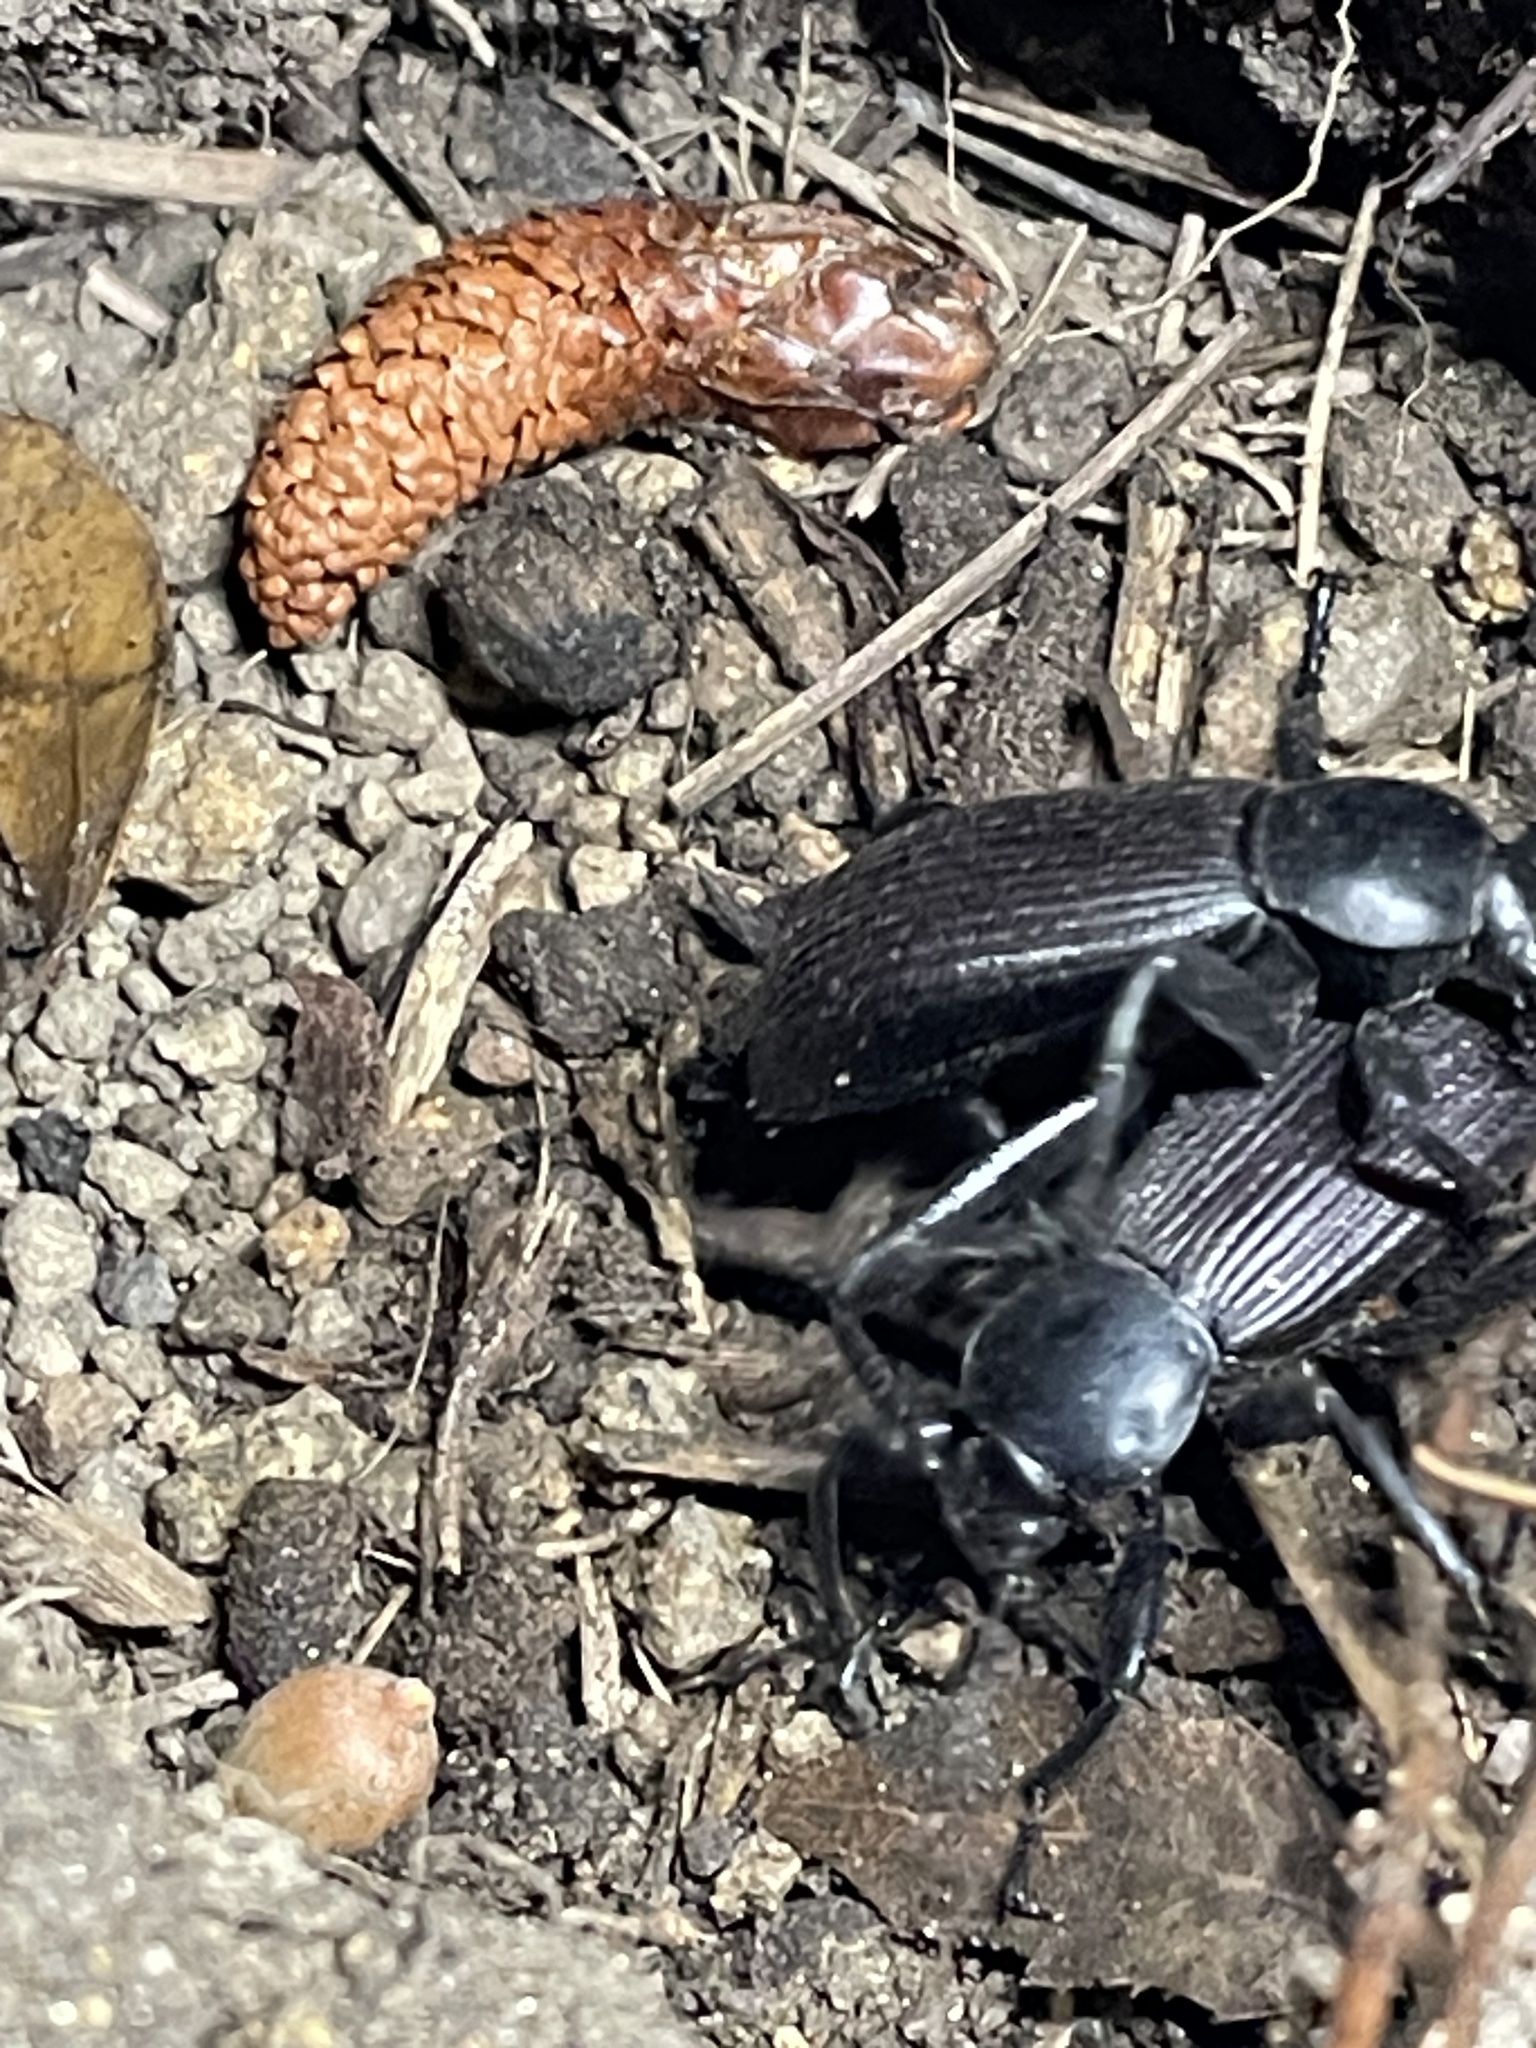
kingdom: Animalia
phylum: Arthropoda
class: Insecta
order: Coleoptera
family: Tenebrionidae
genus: Eleodes
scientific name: Eleodes obscura
